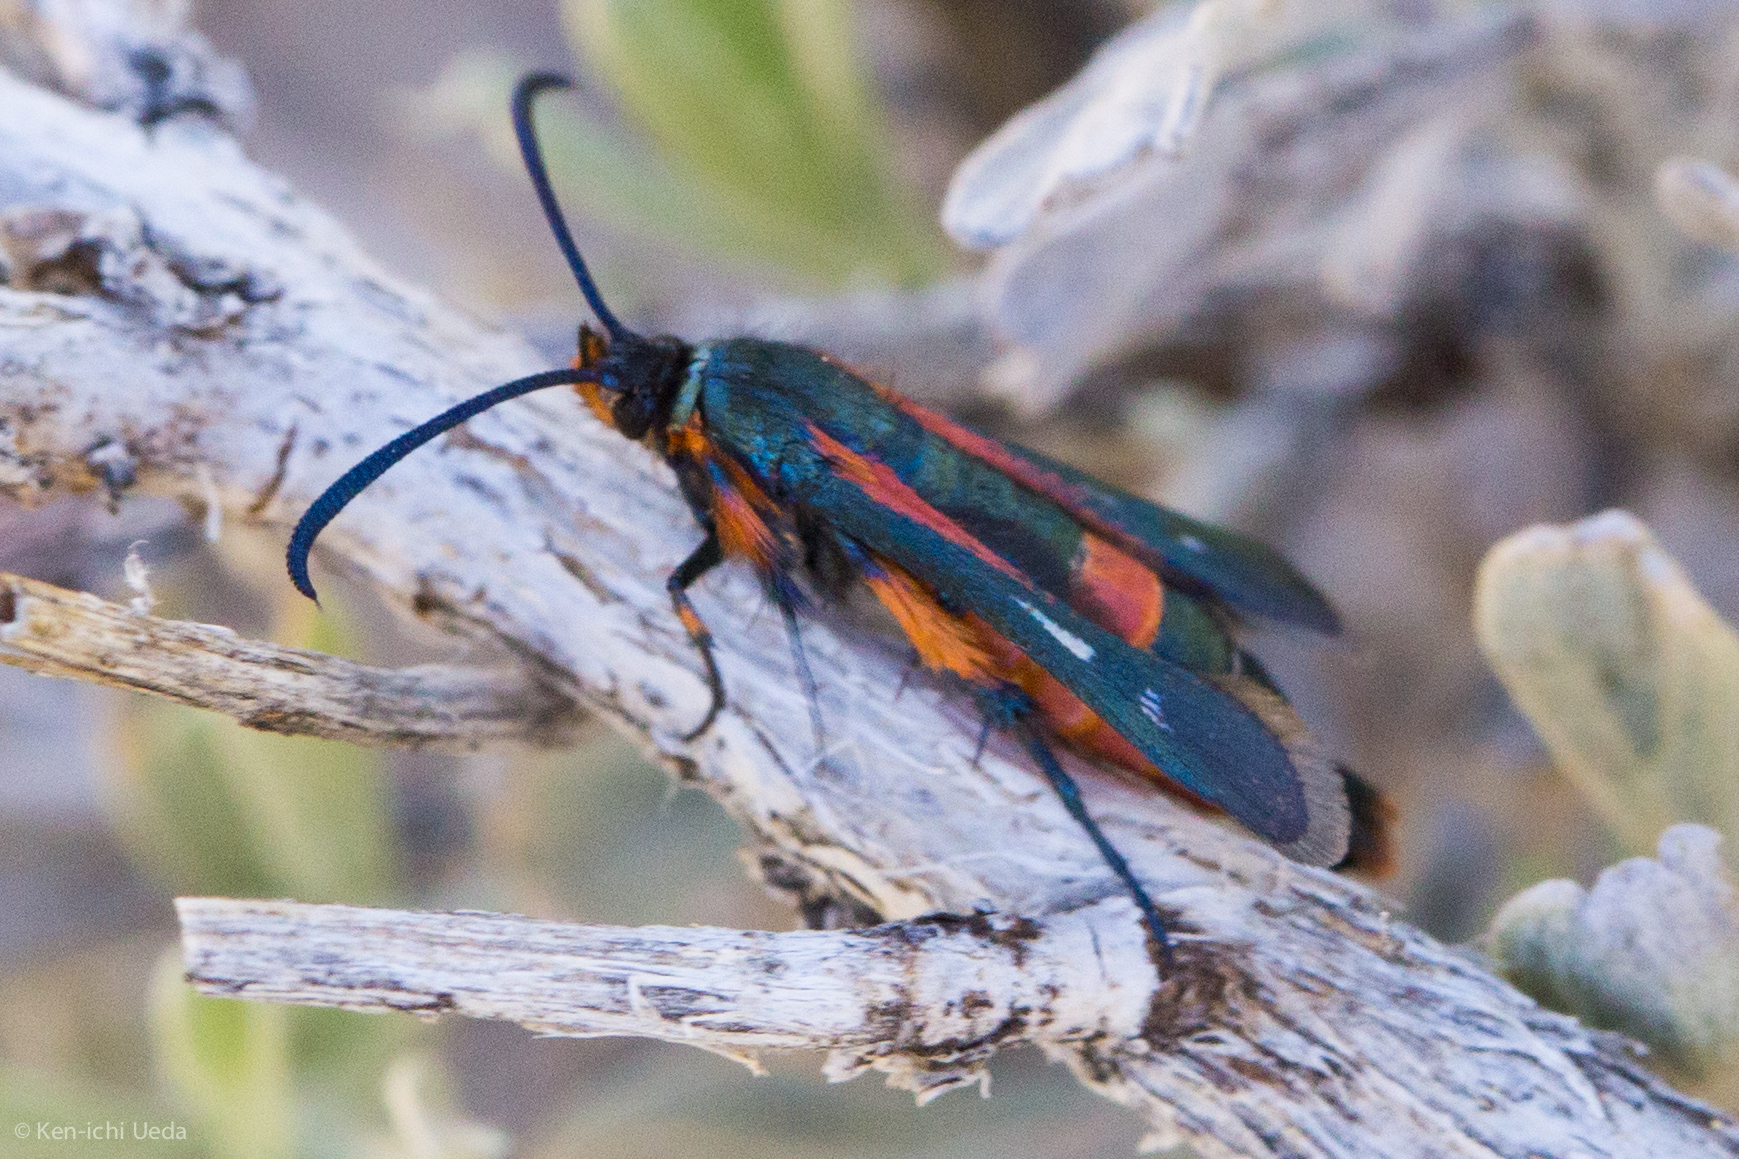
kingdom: Animalia
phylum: Arthropoda
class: Insecta
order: Lepidoptera
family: Sesiidae
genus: Synanthedon
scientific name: Synanthedon polygoni
